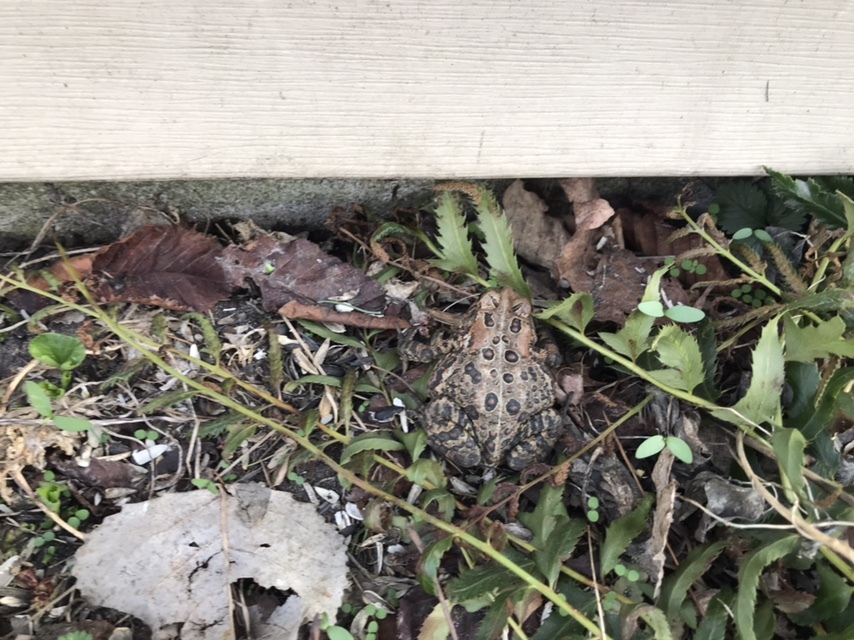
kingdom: Animalia
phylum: Chordata
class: Amphibia
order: Anura
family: Bufonidae
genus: Anaxyrus
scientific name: Anaxyrus americanus
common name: American toad
